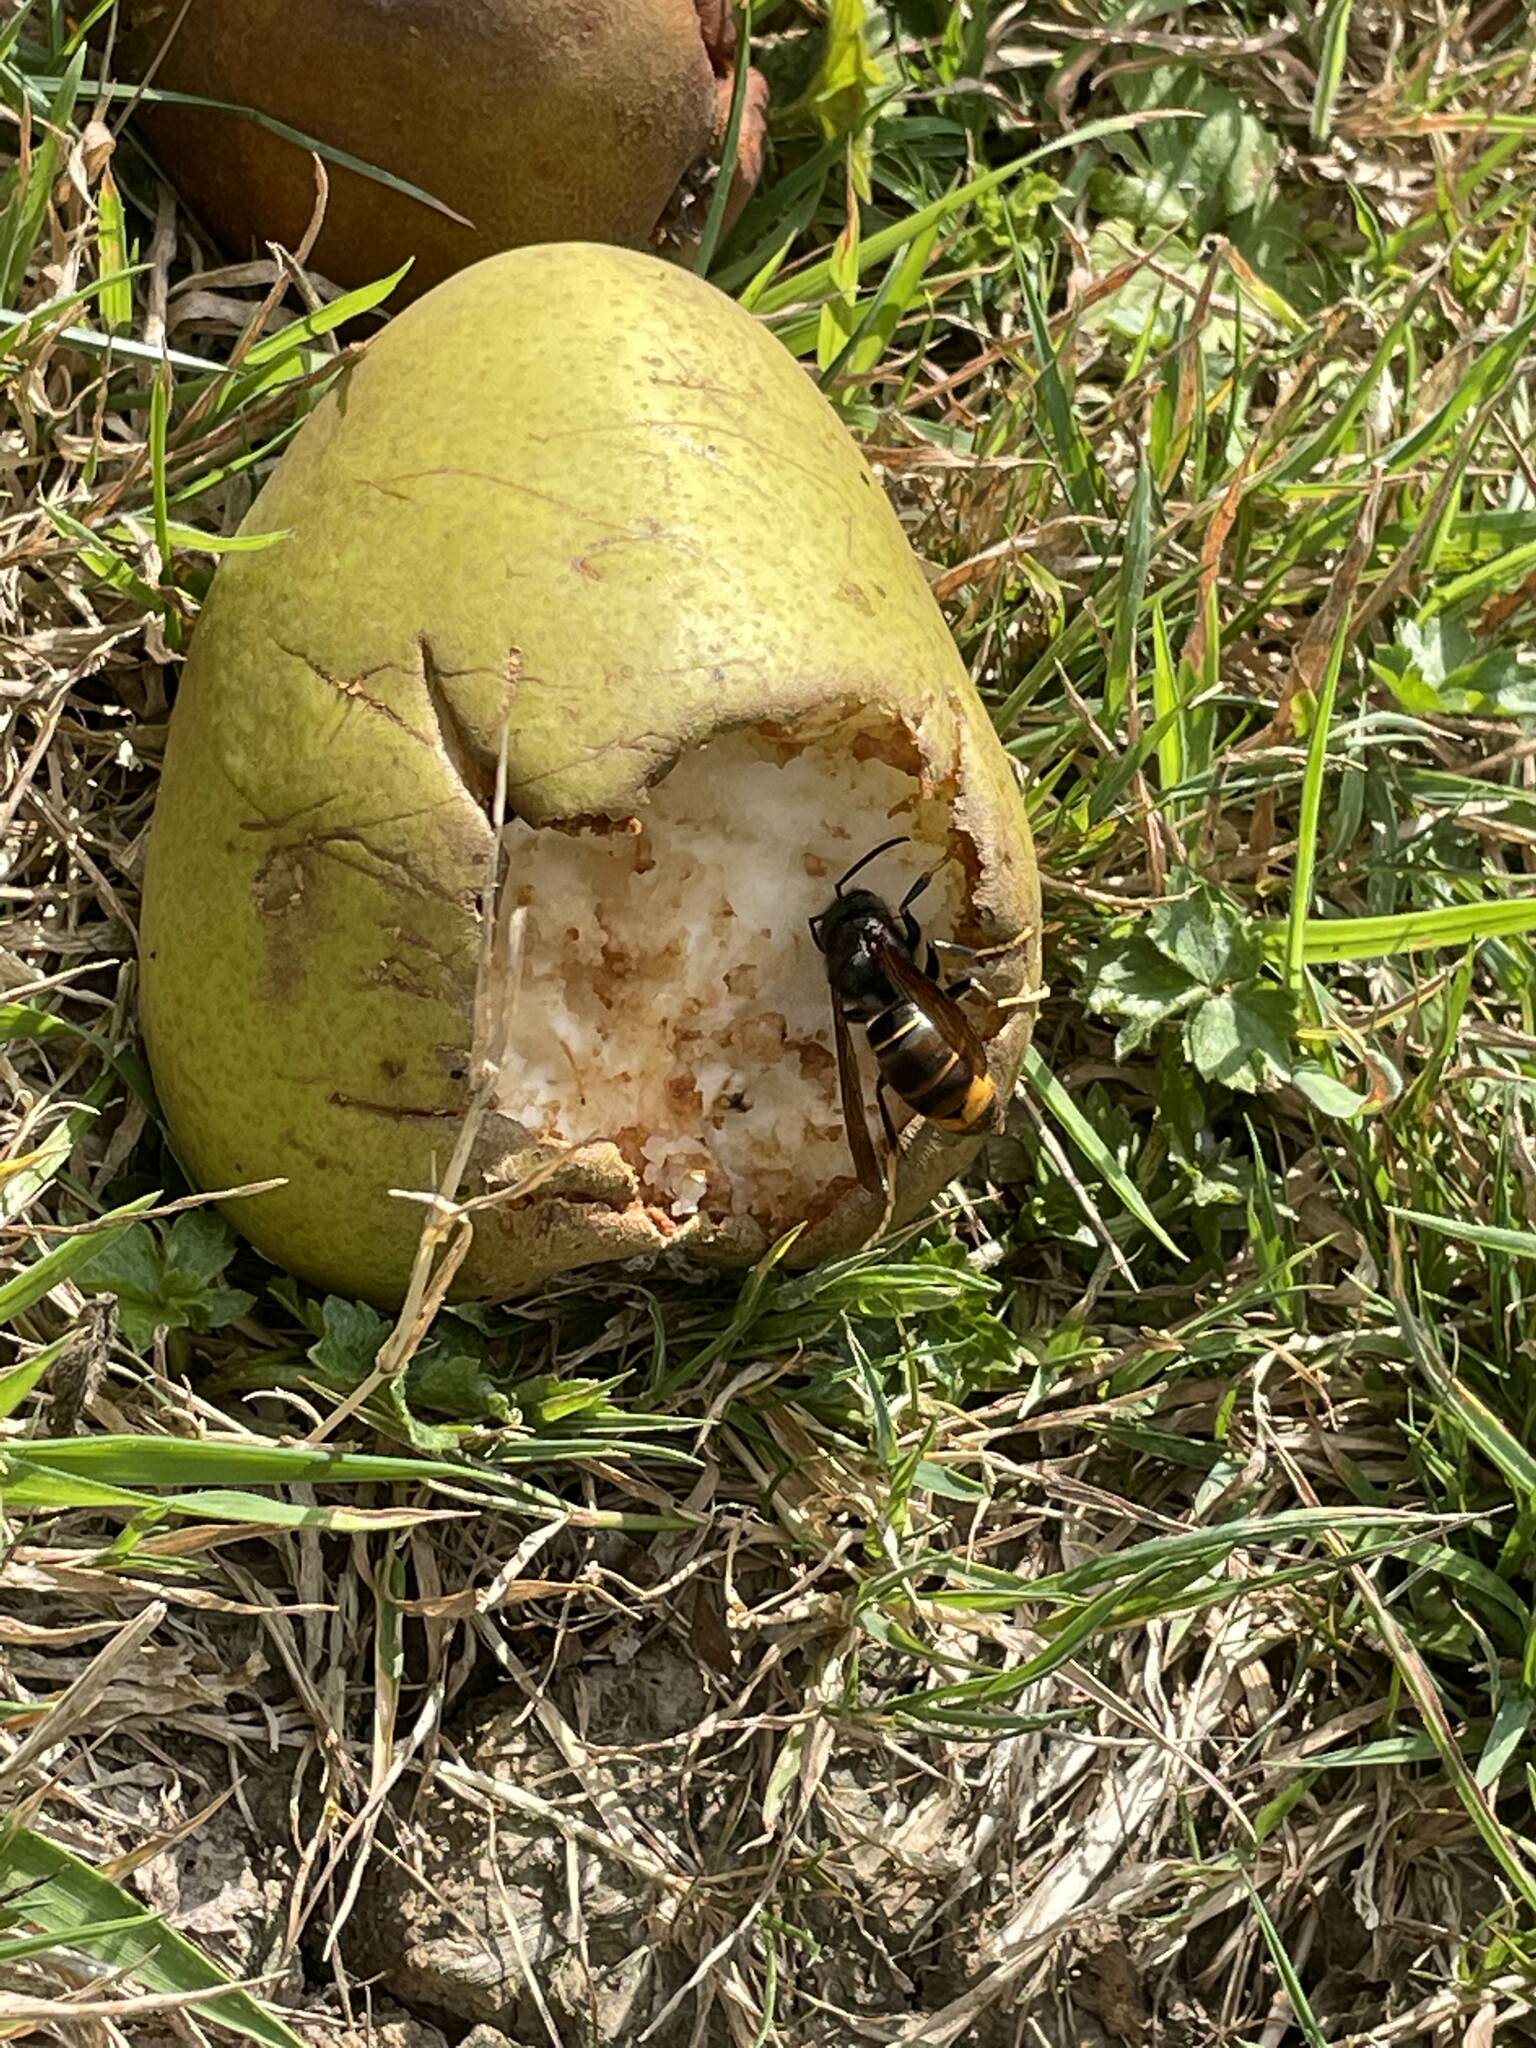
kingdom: Animalia
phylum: Arthropoda
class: Insecta
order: Hymenoptera
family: Vespidae
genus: Vespa
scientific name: Vespa velutina
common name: Asian hornet
